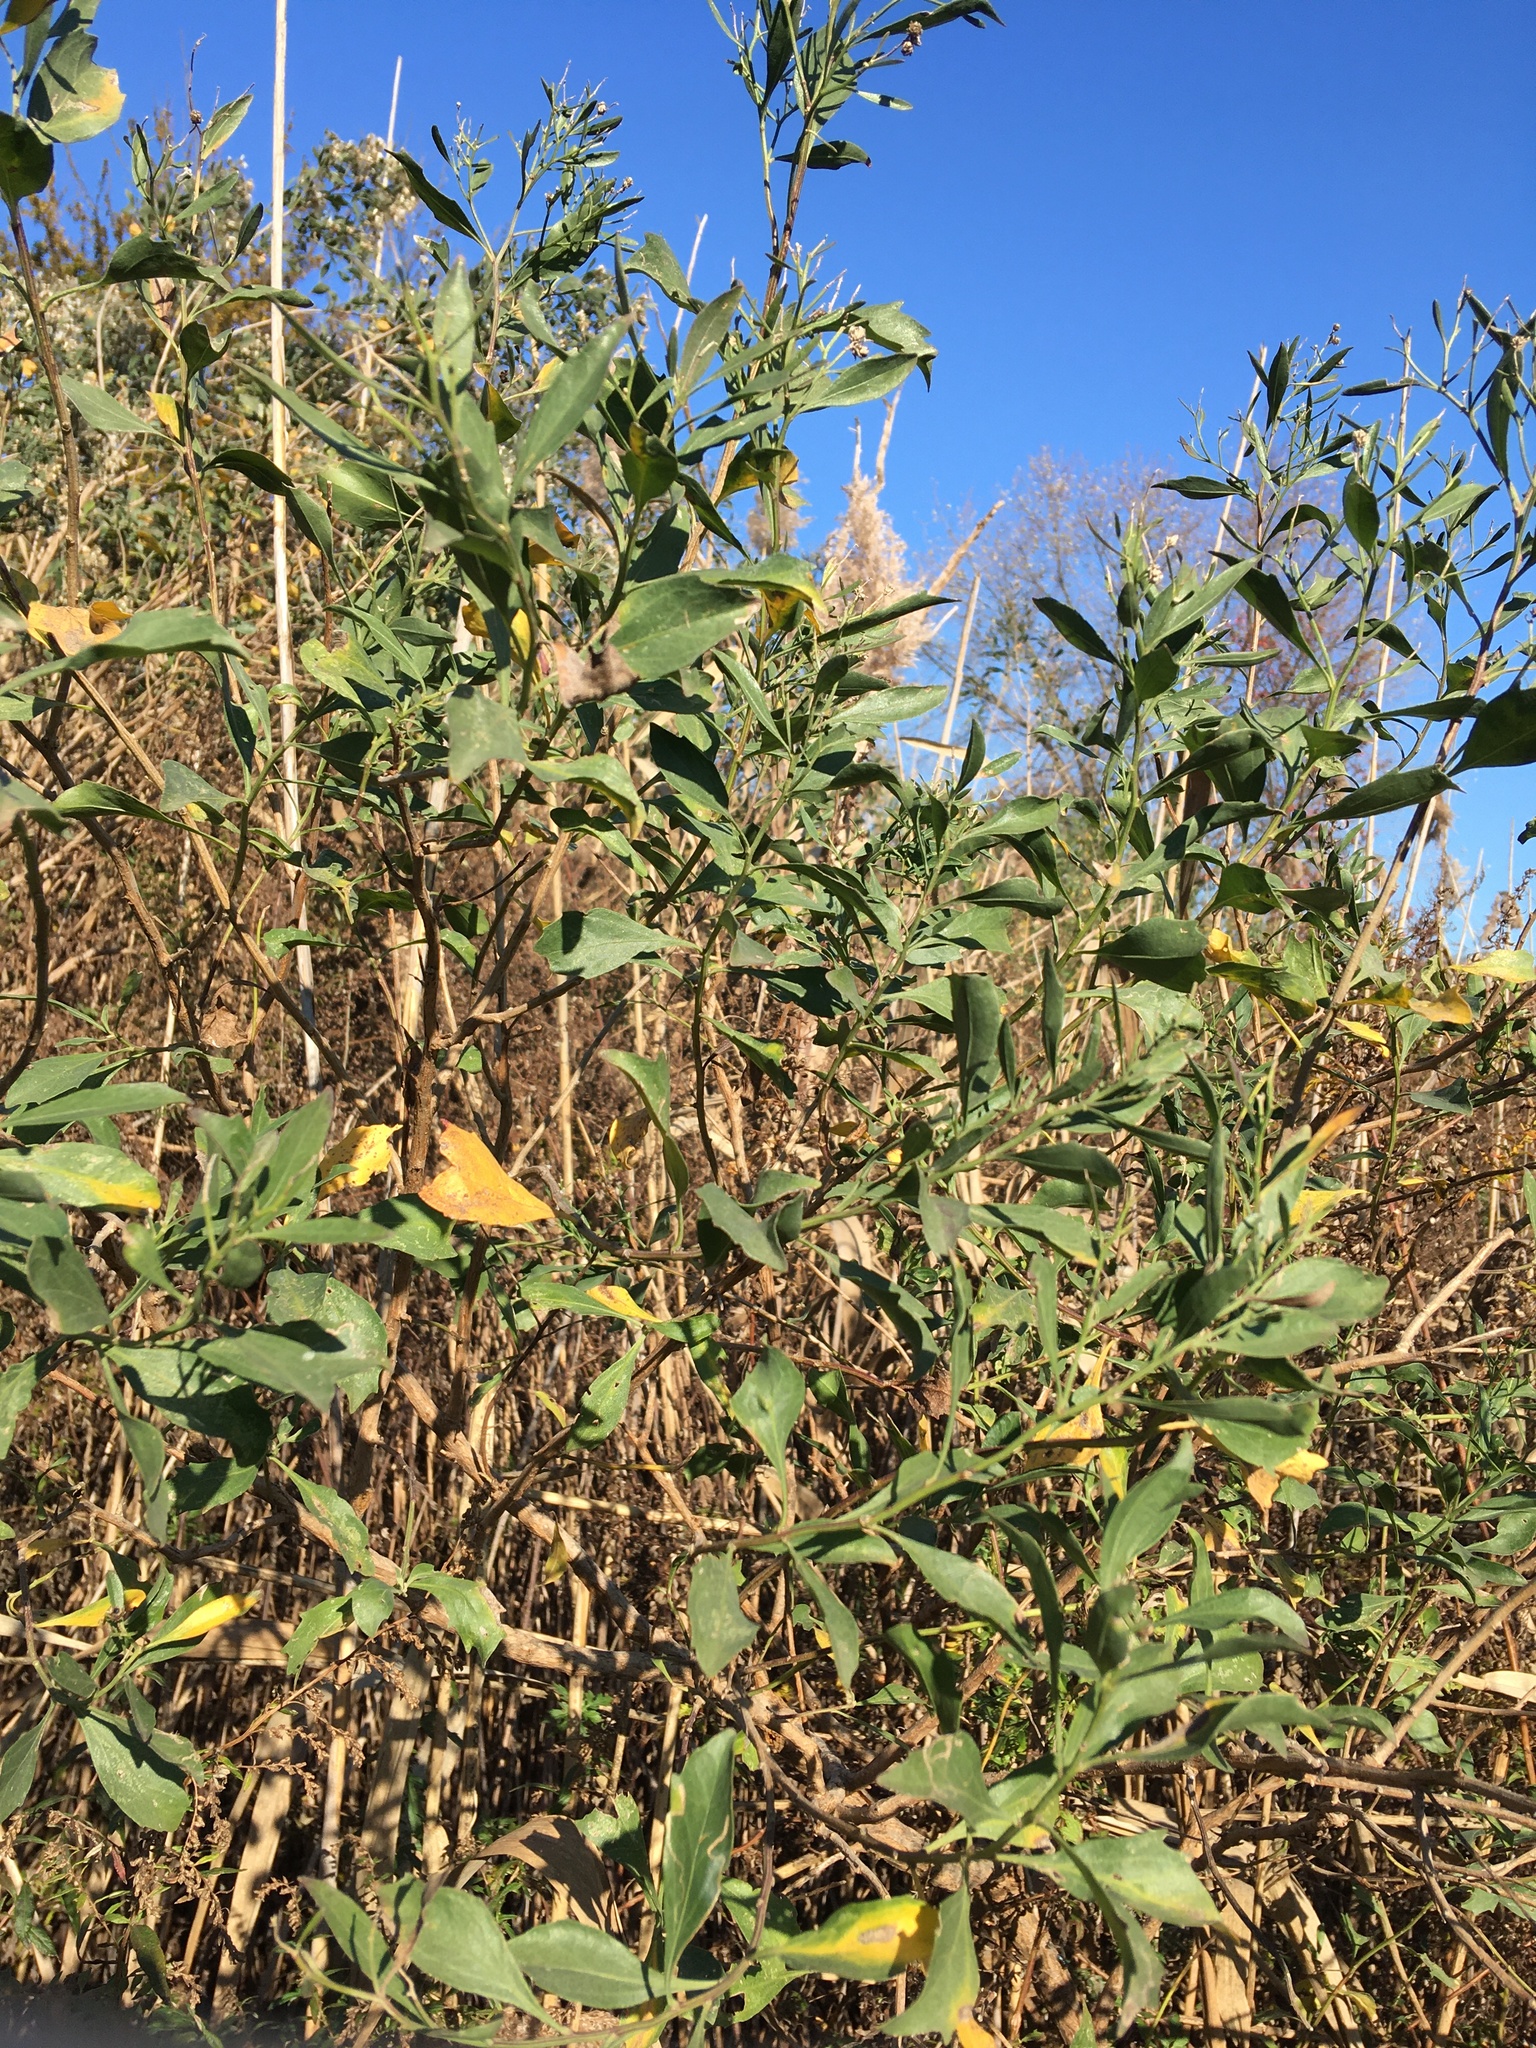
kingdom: Plantae
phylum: Tracheophyta
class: Magnoliopsida
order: Asterales
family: Asteraceae
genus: Baccharis
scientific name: Baccharis halimifolia
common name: Eastern baccharis
